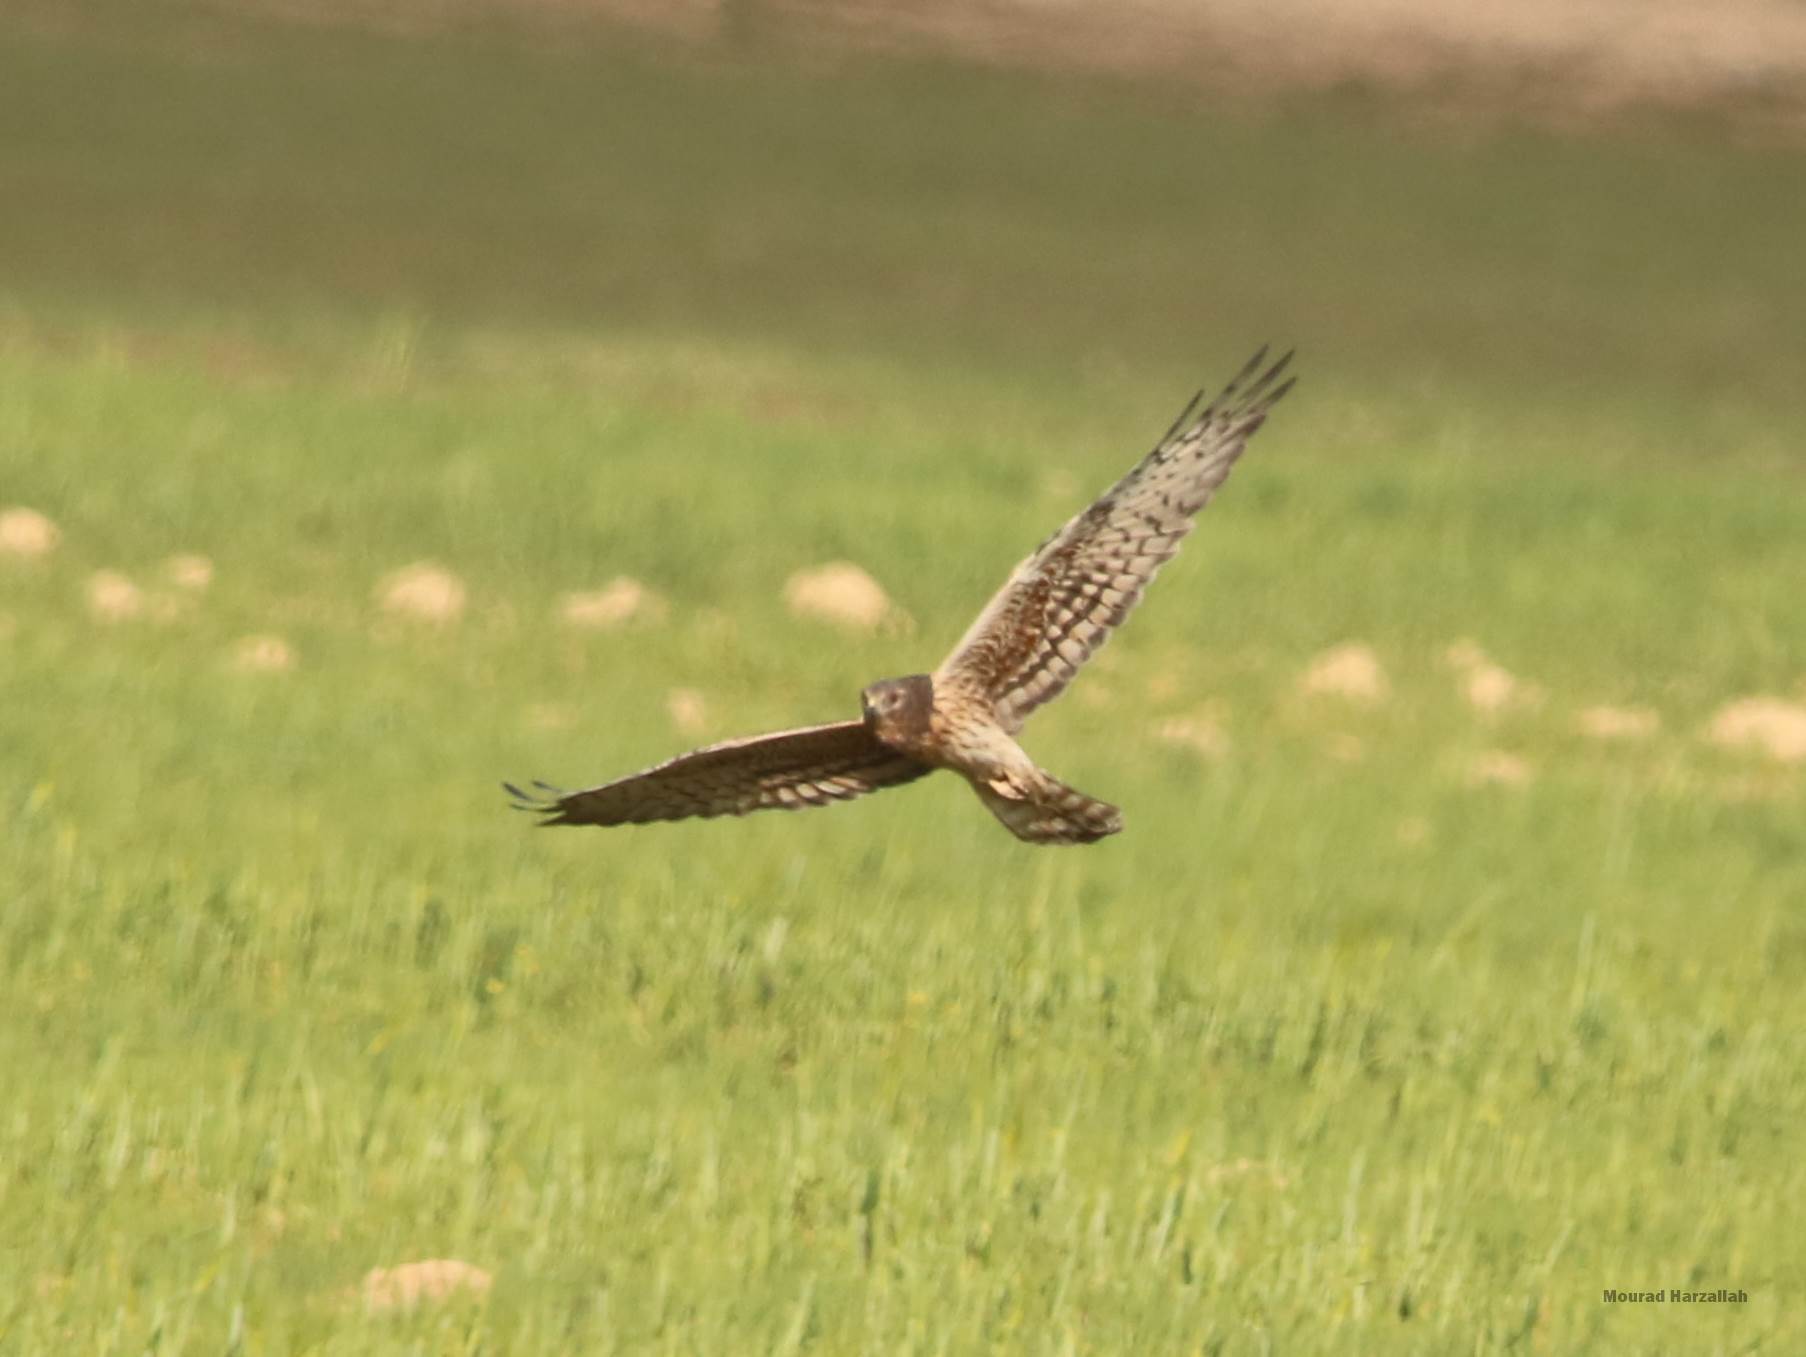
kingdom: Animalia
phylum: Chordata
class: Aves
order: Accipitriformes
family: Accipitridae
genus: Circus
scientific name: Circus pygargus
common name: Montagu's harrier
